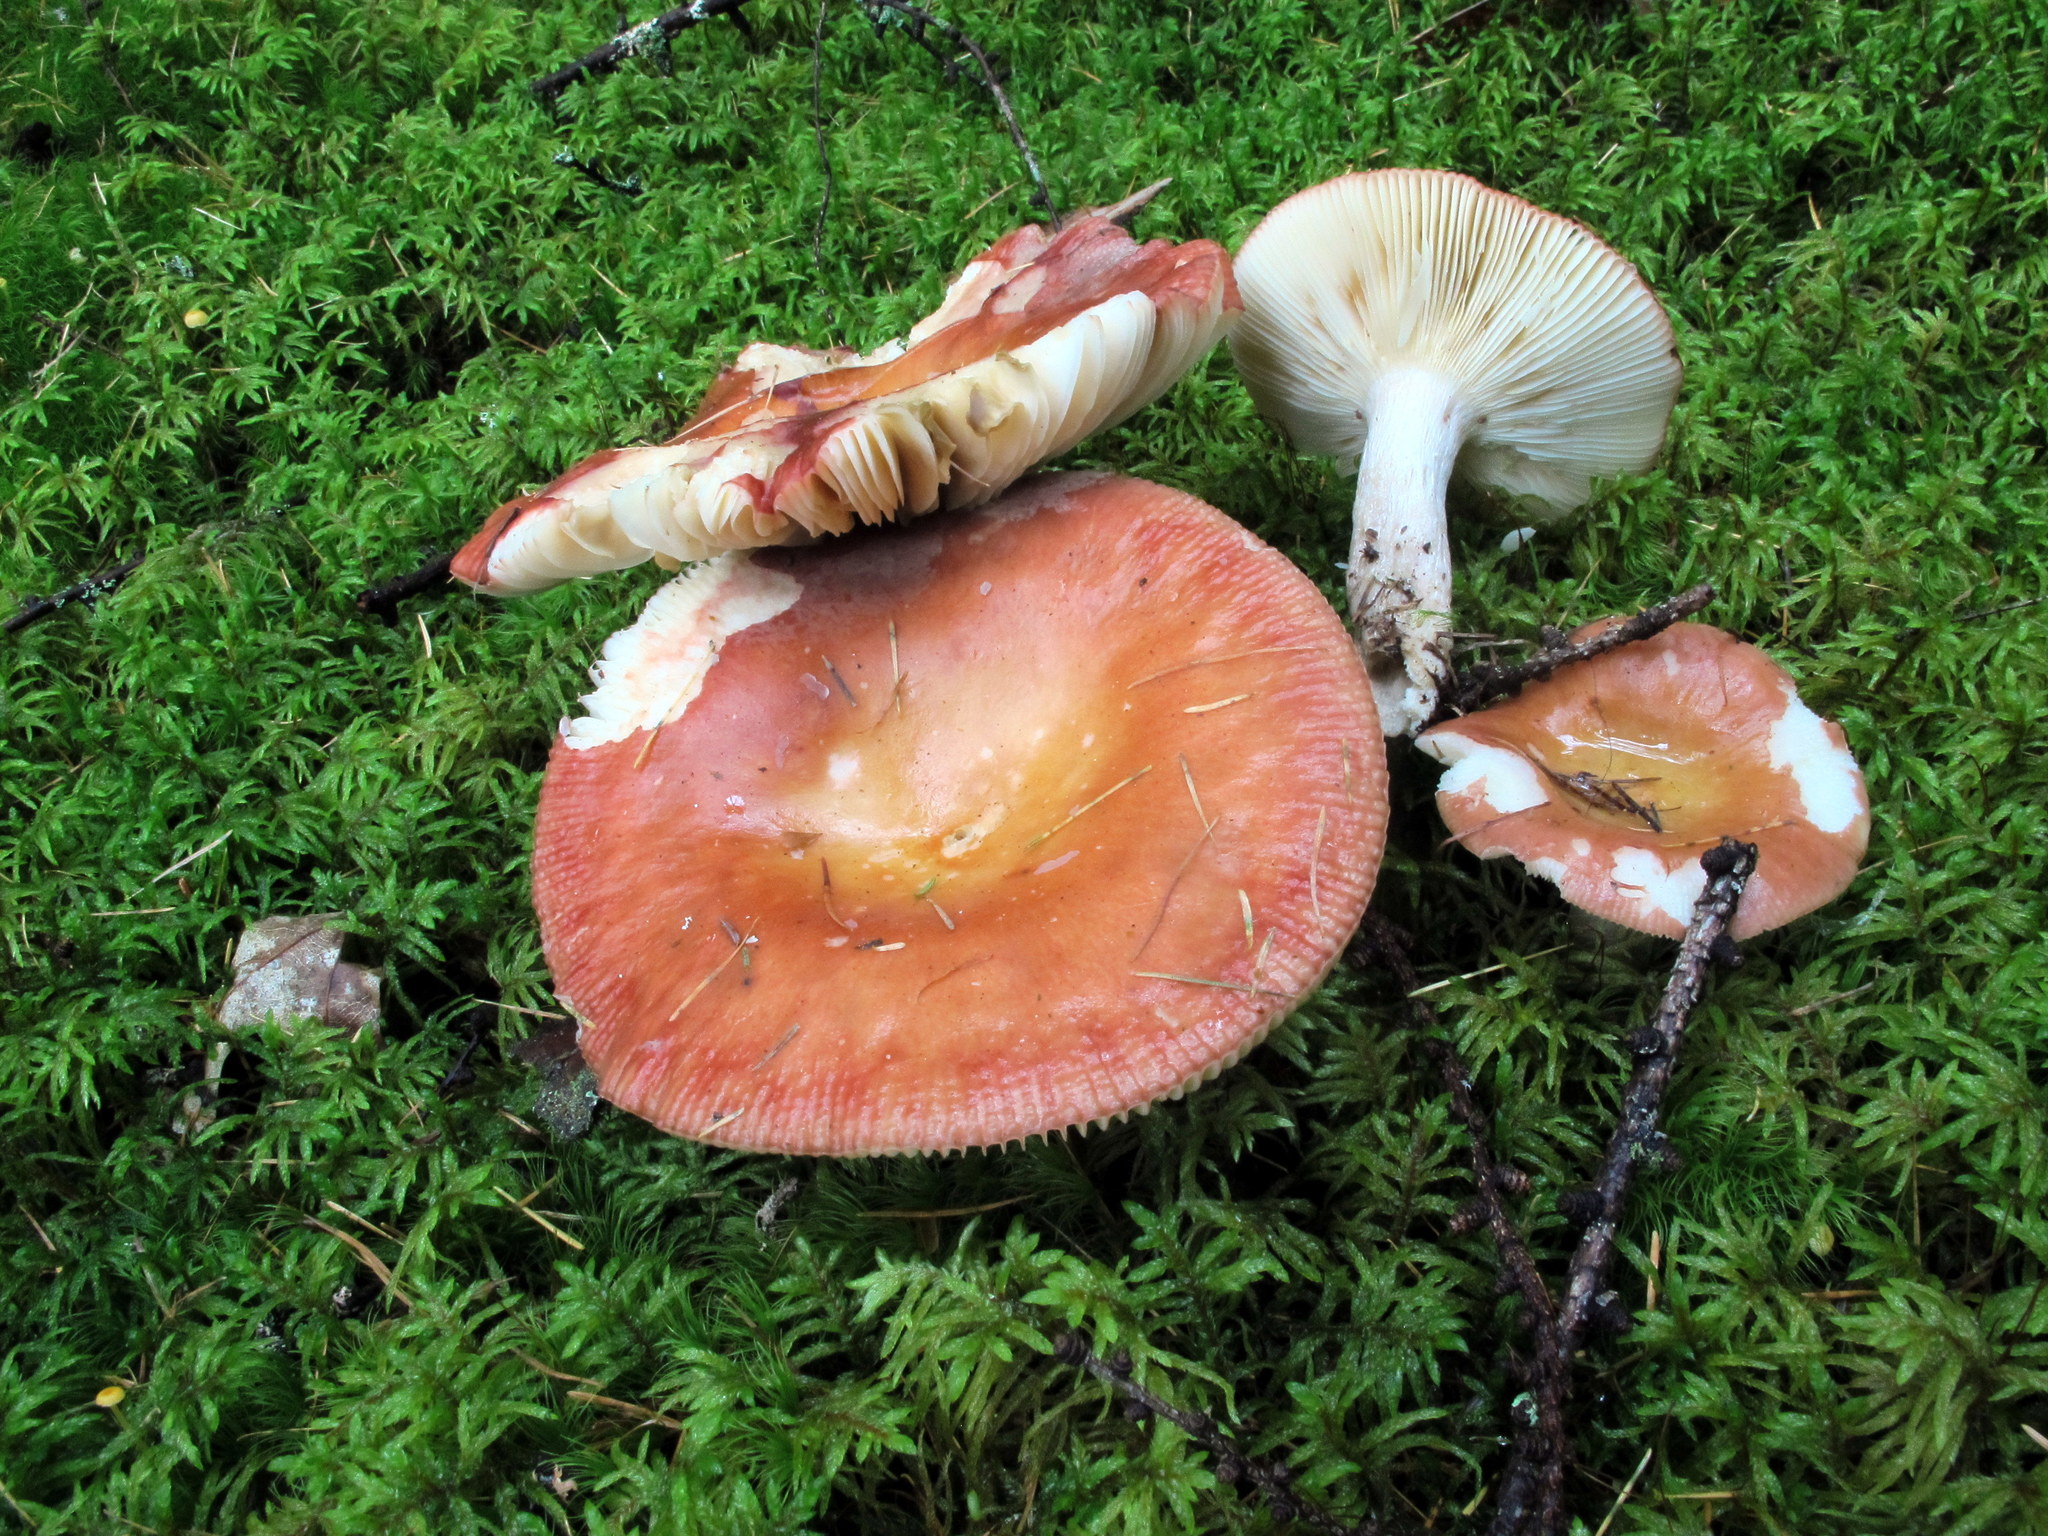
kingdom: Fungi
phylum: Basidiomycota
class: Agaricomycetes
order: Russulales
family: Russulaceae
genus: Russula
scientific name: Russula paludosa
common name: Hintapink
